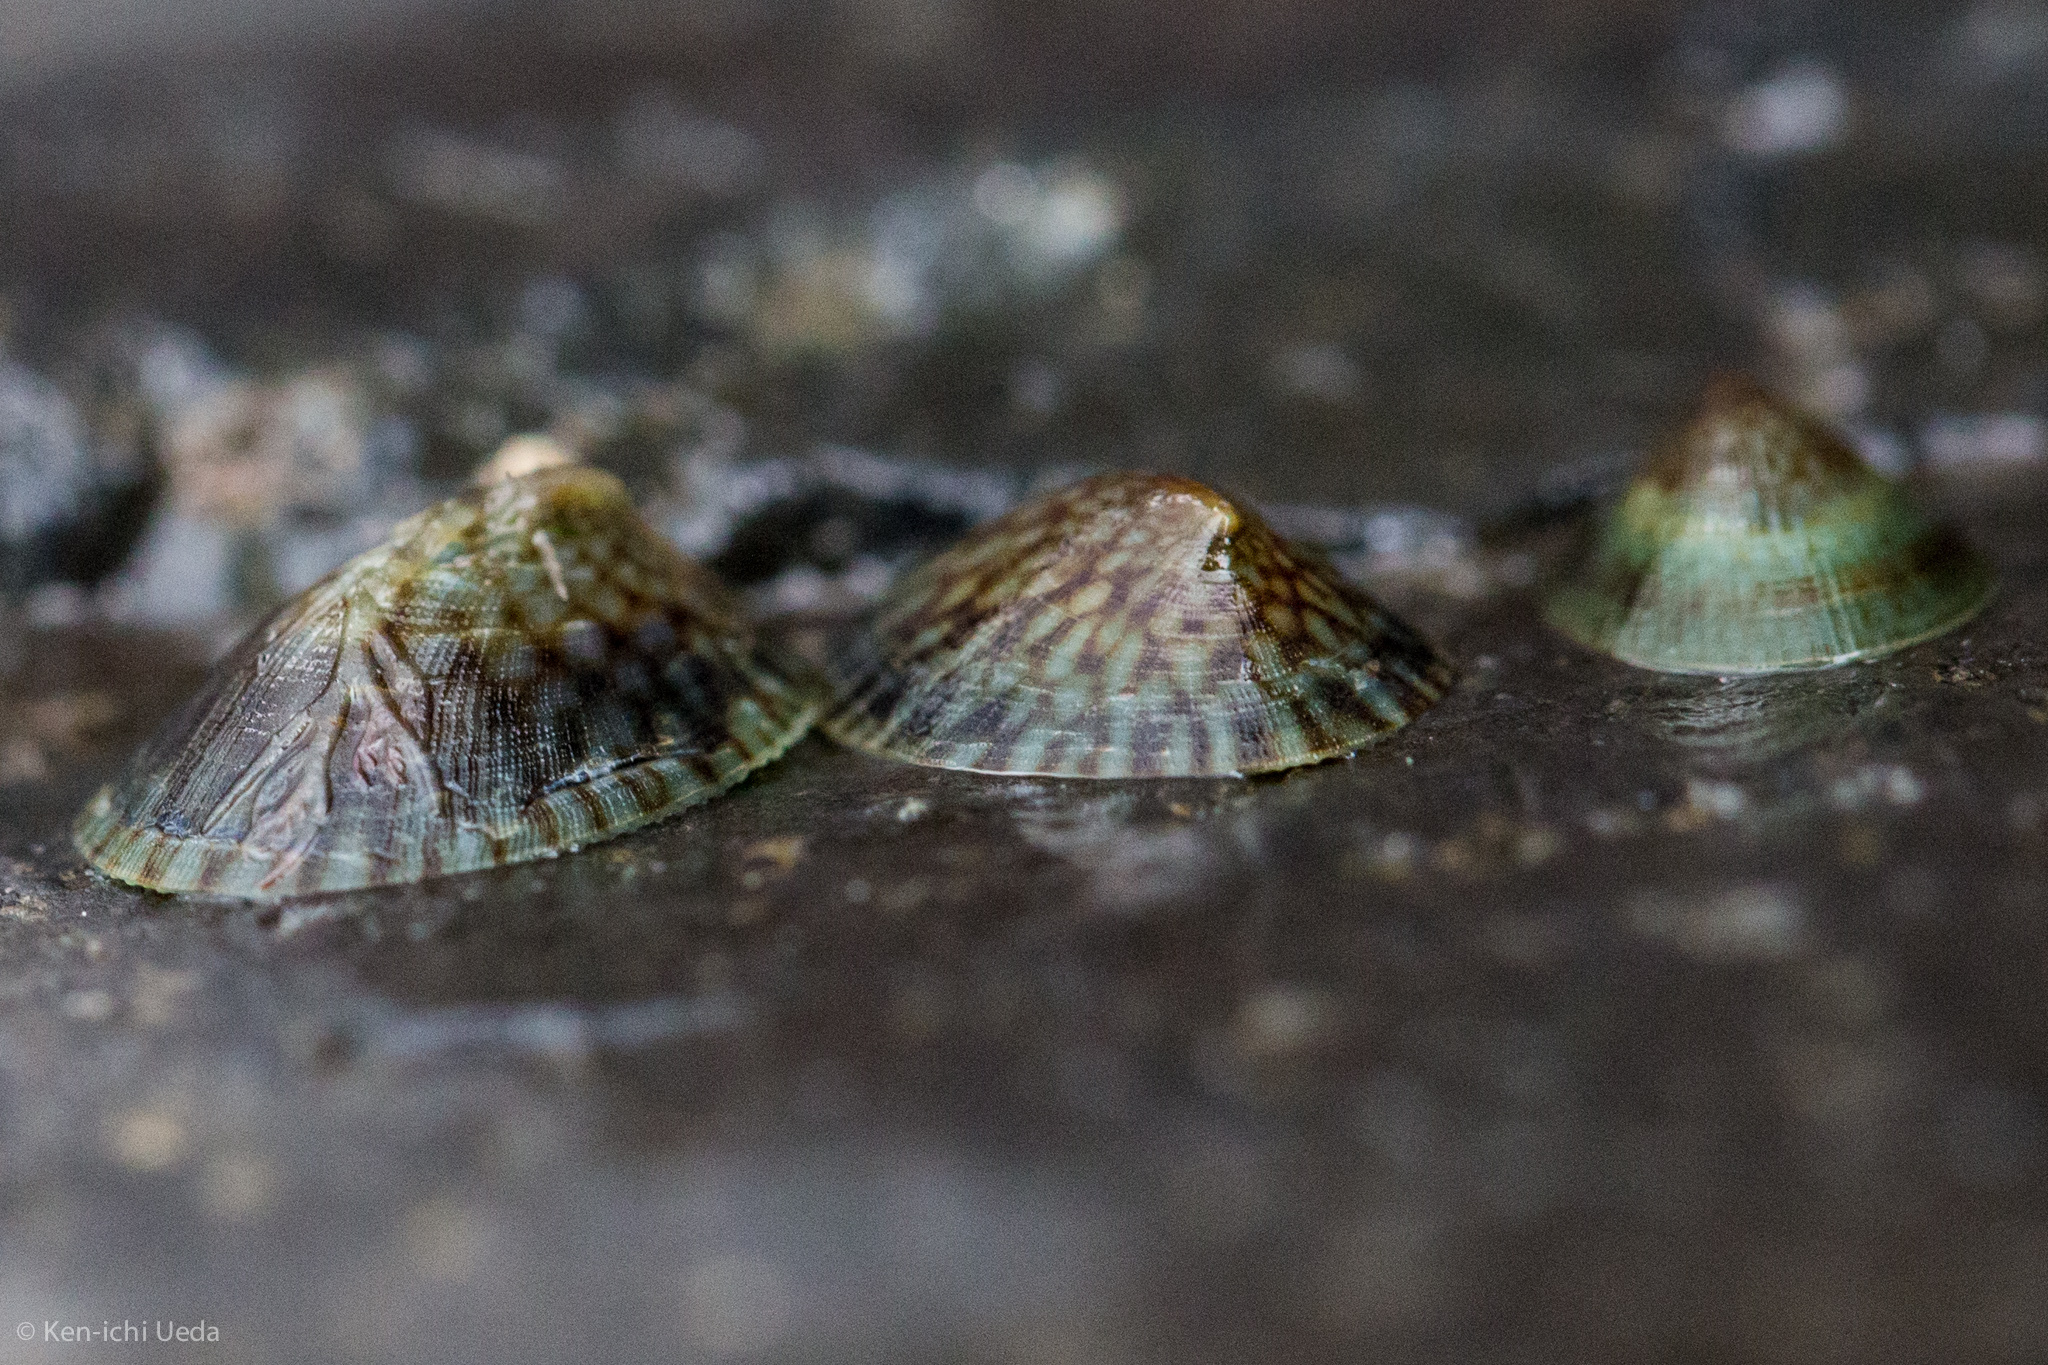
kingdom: Animalia
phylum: Mollusca
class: Gastropoda
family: Lottiidae
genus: Notoacmea
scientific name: Notoacmea potae
